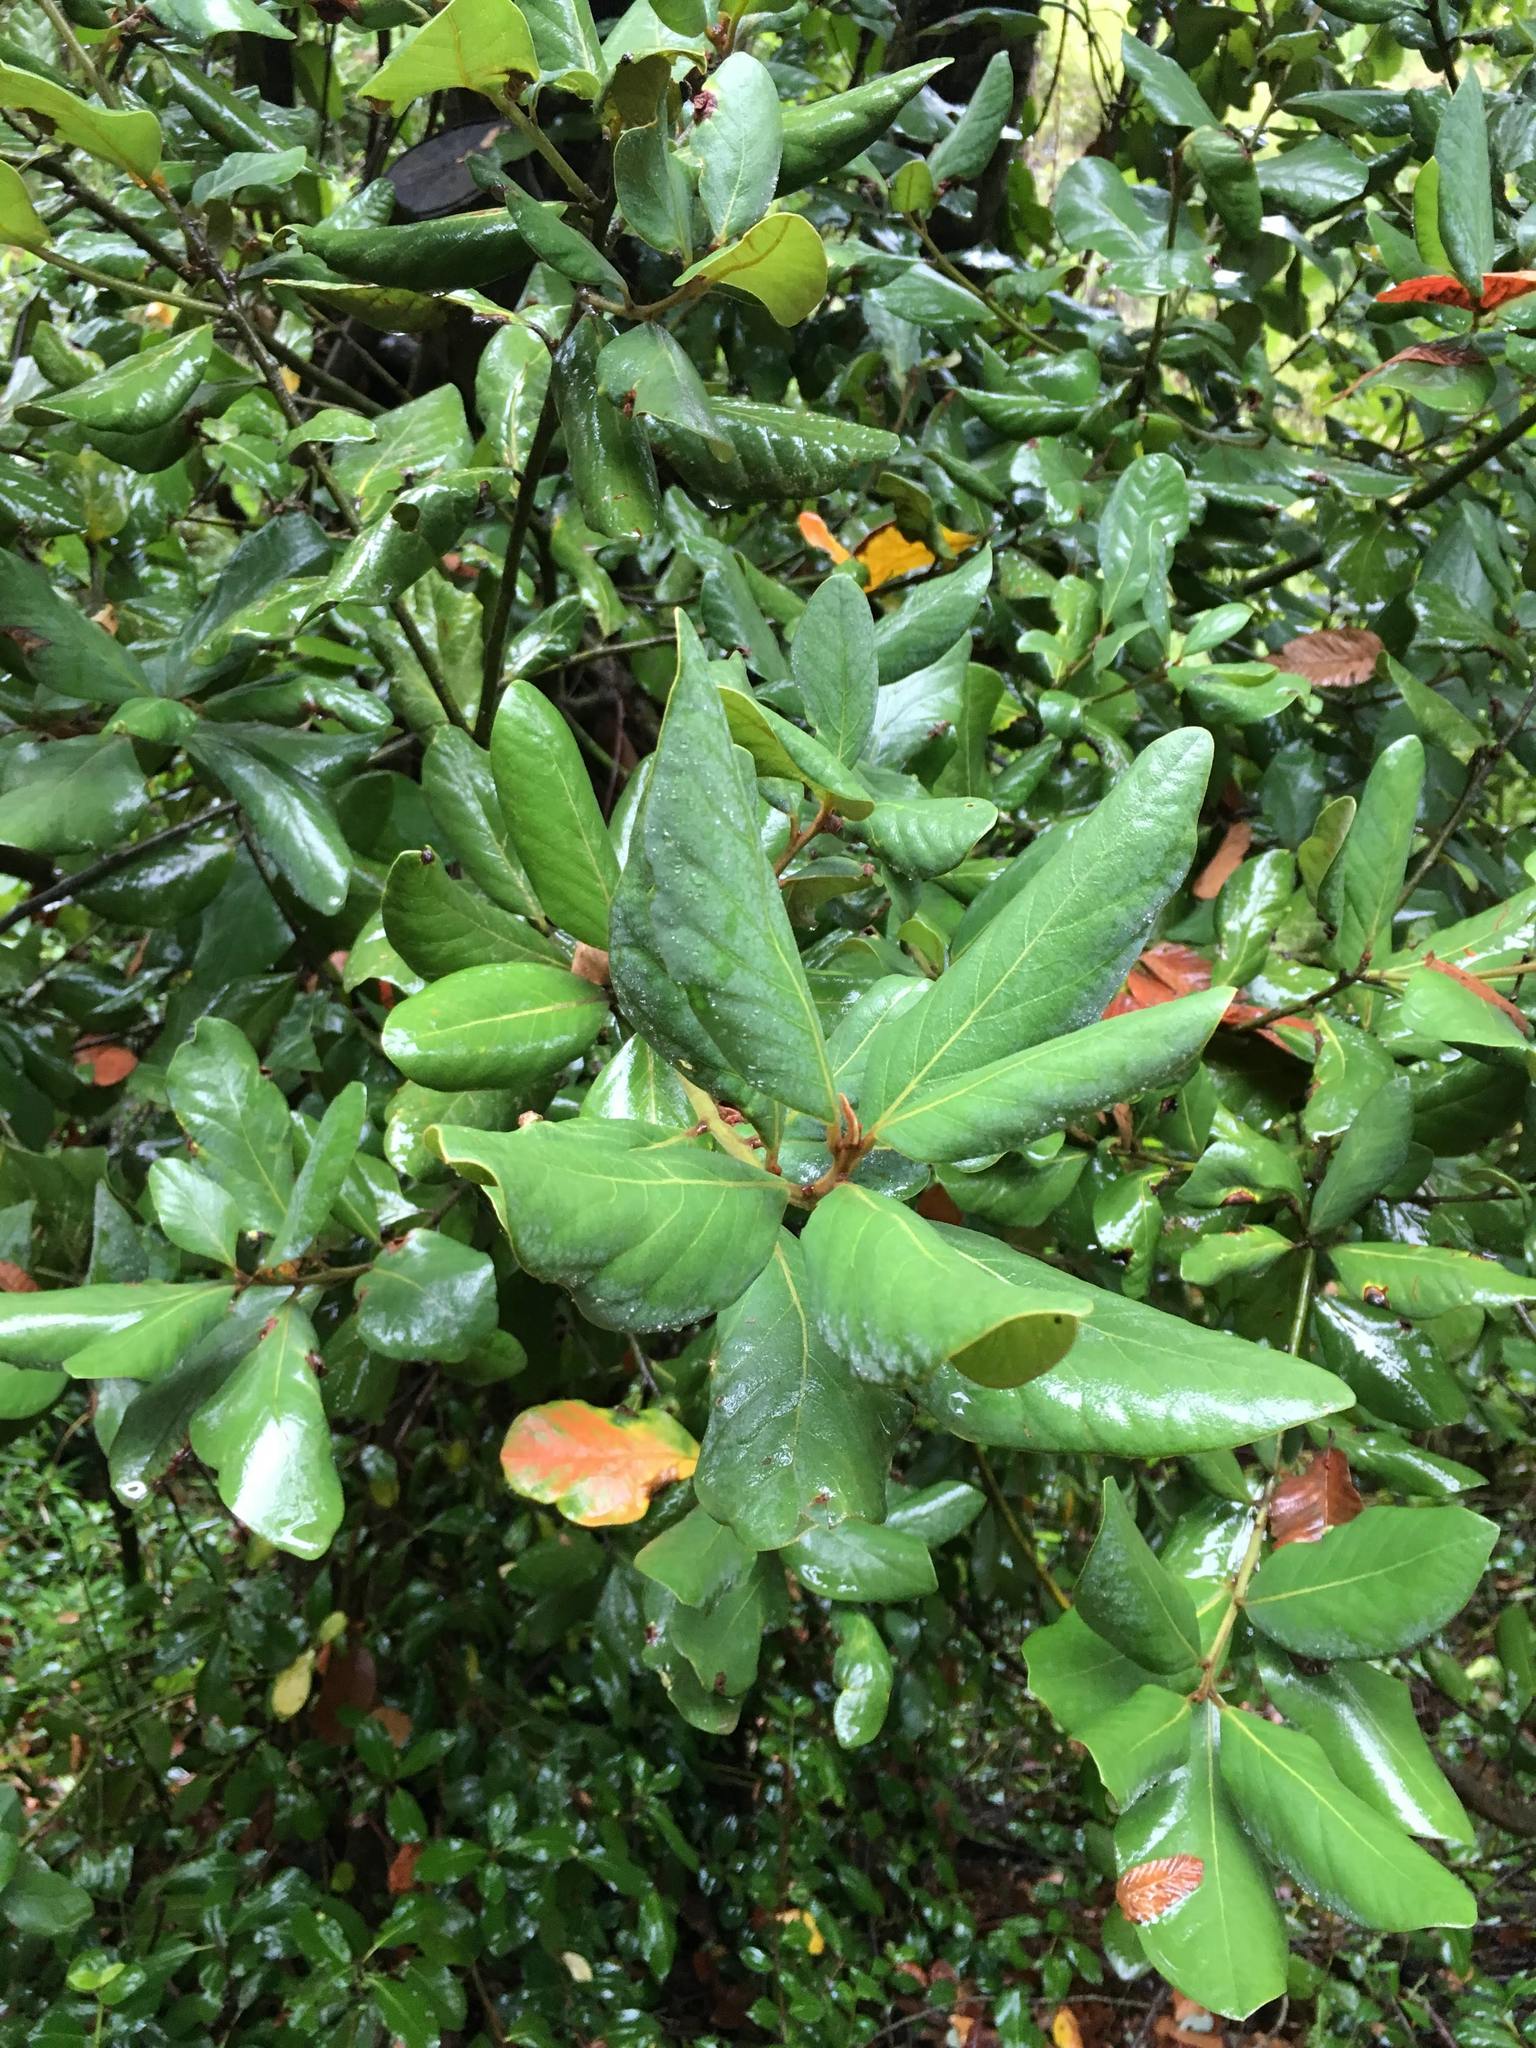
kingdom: Plantae
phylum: Tracheophyta
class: Magnoliopsida
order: Laurales
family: Lauraceae
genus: Persea
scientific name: Persea lingue
